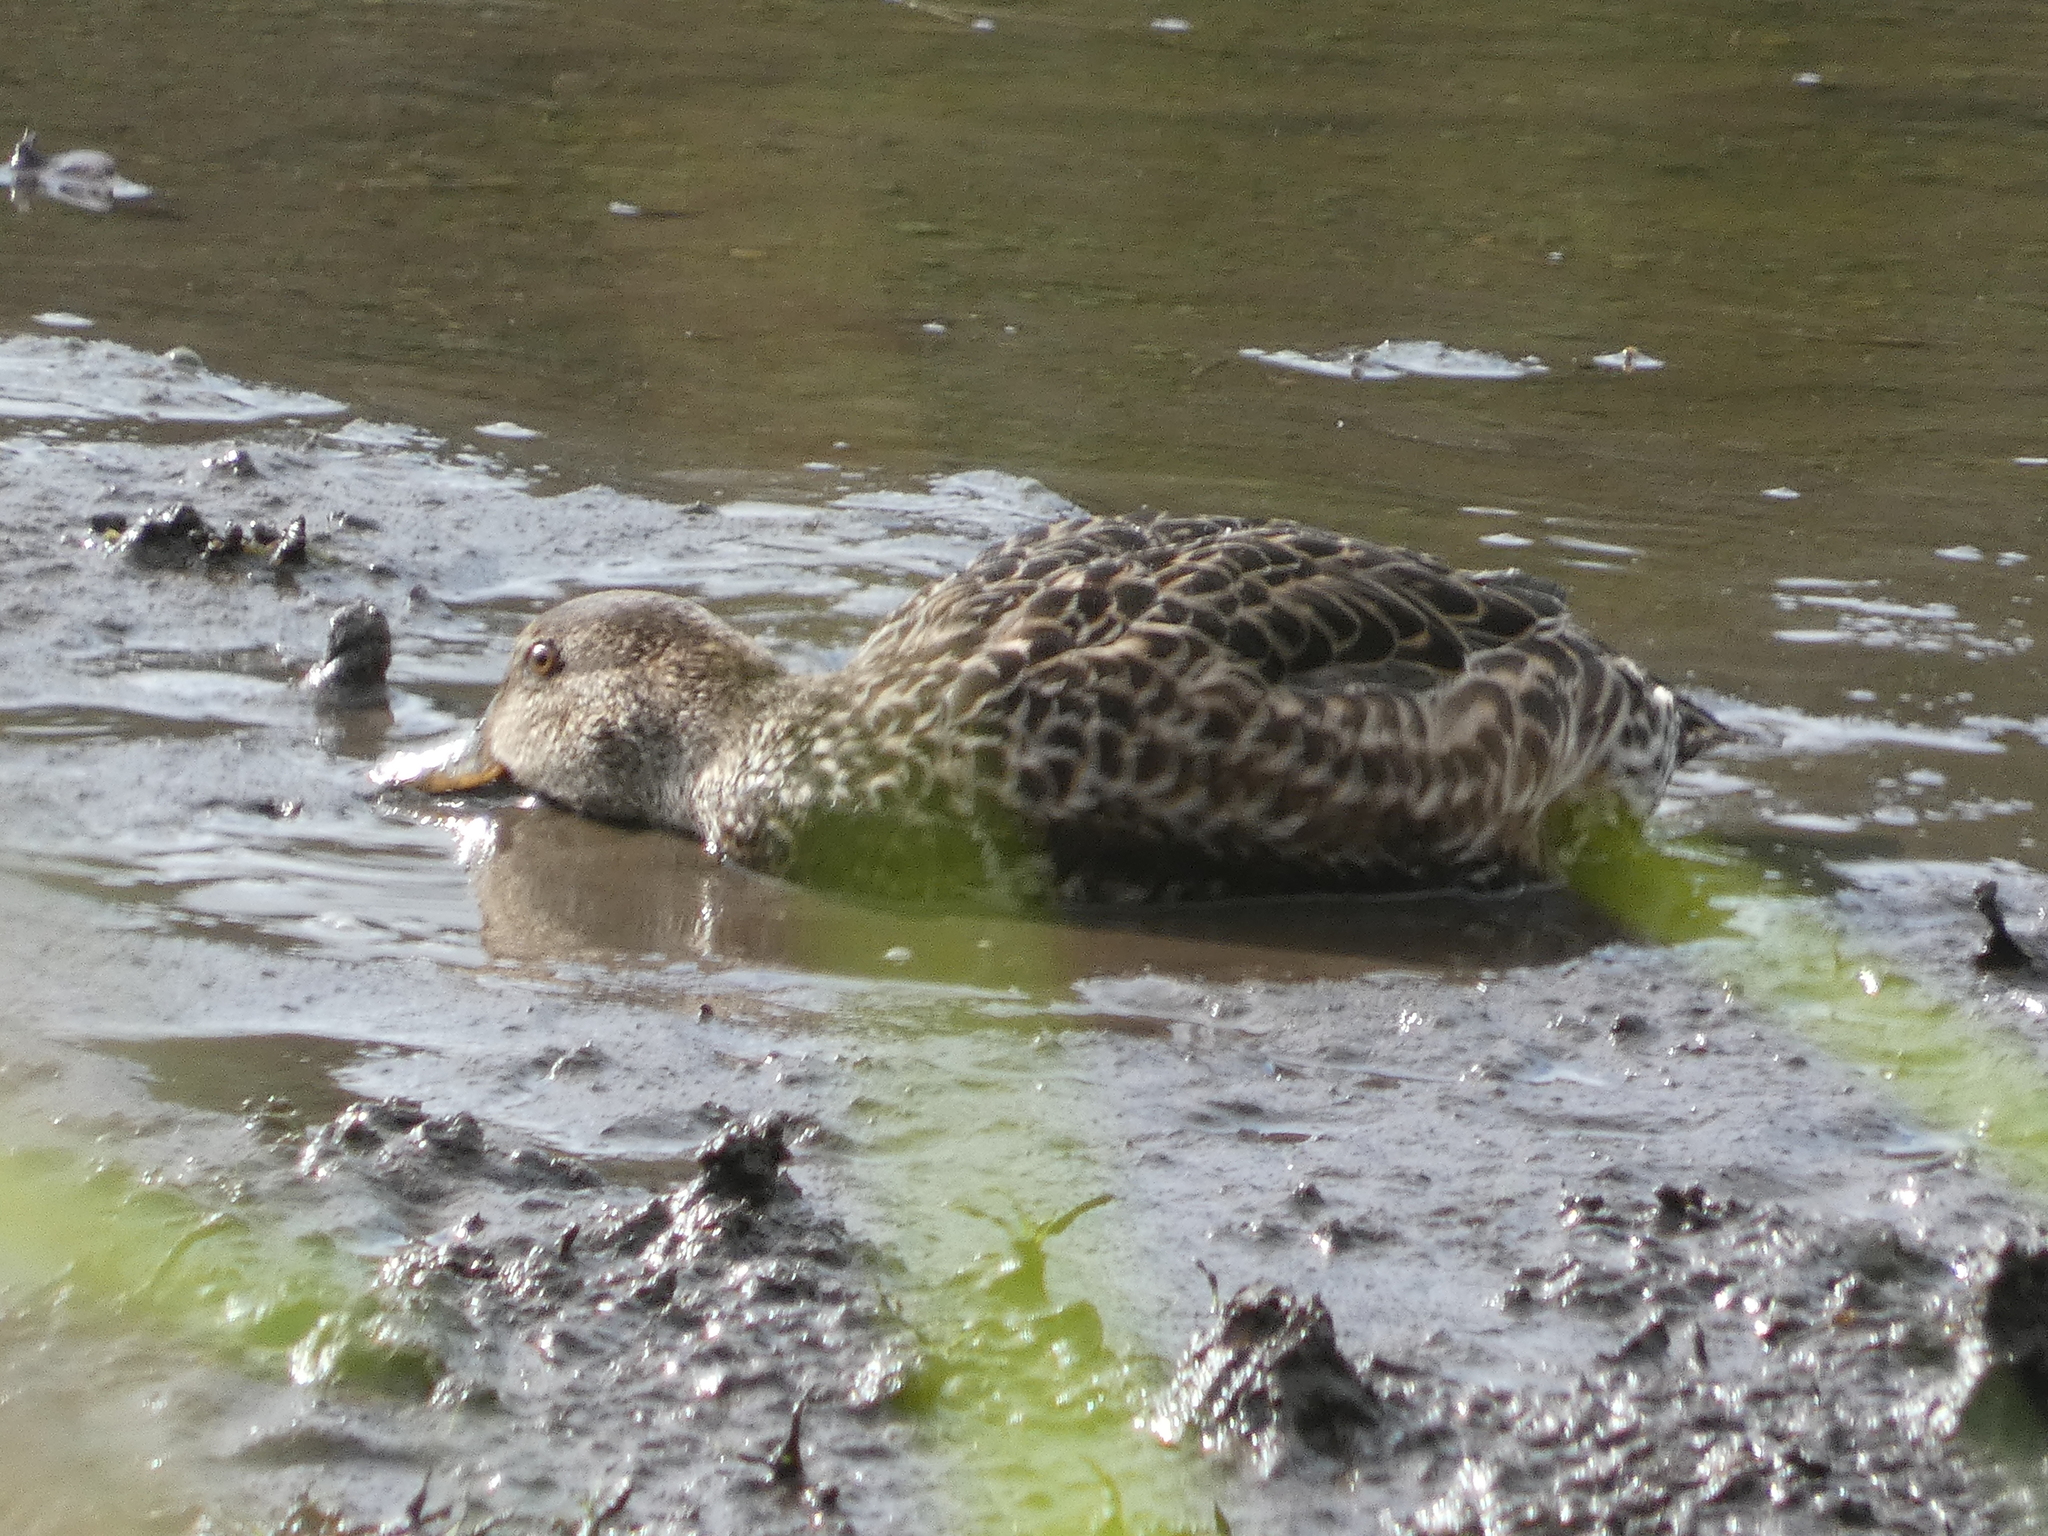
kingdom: Animalia
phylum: Chordata
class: Aves
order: Anseriformes
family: Anatidae
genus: Anas
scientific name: Anas platyrhynchos
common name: Mallard
